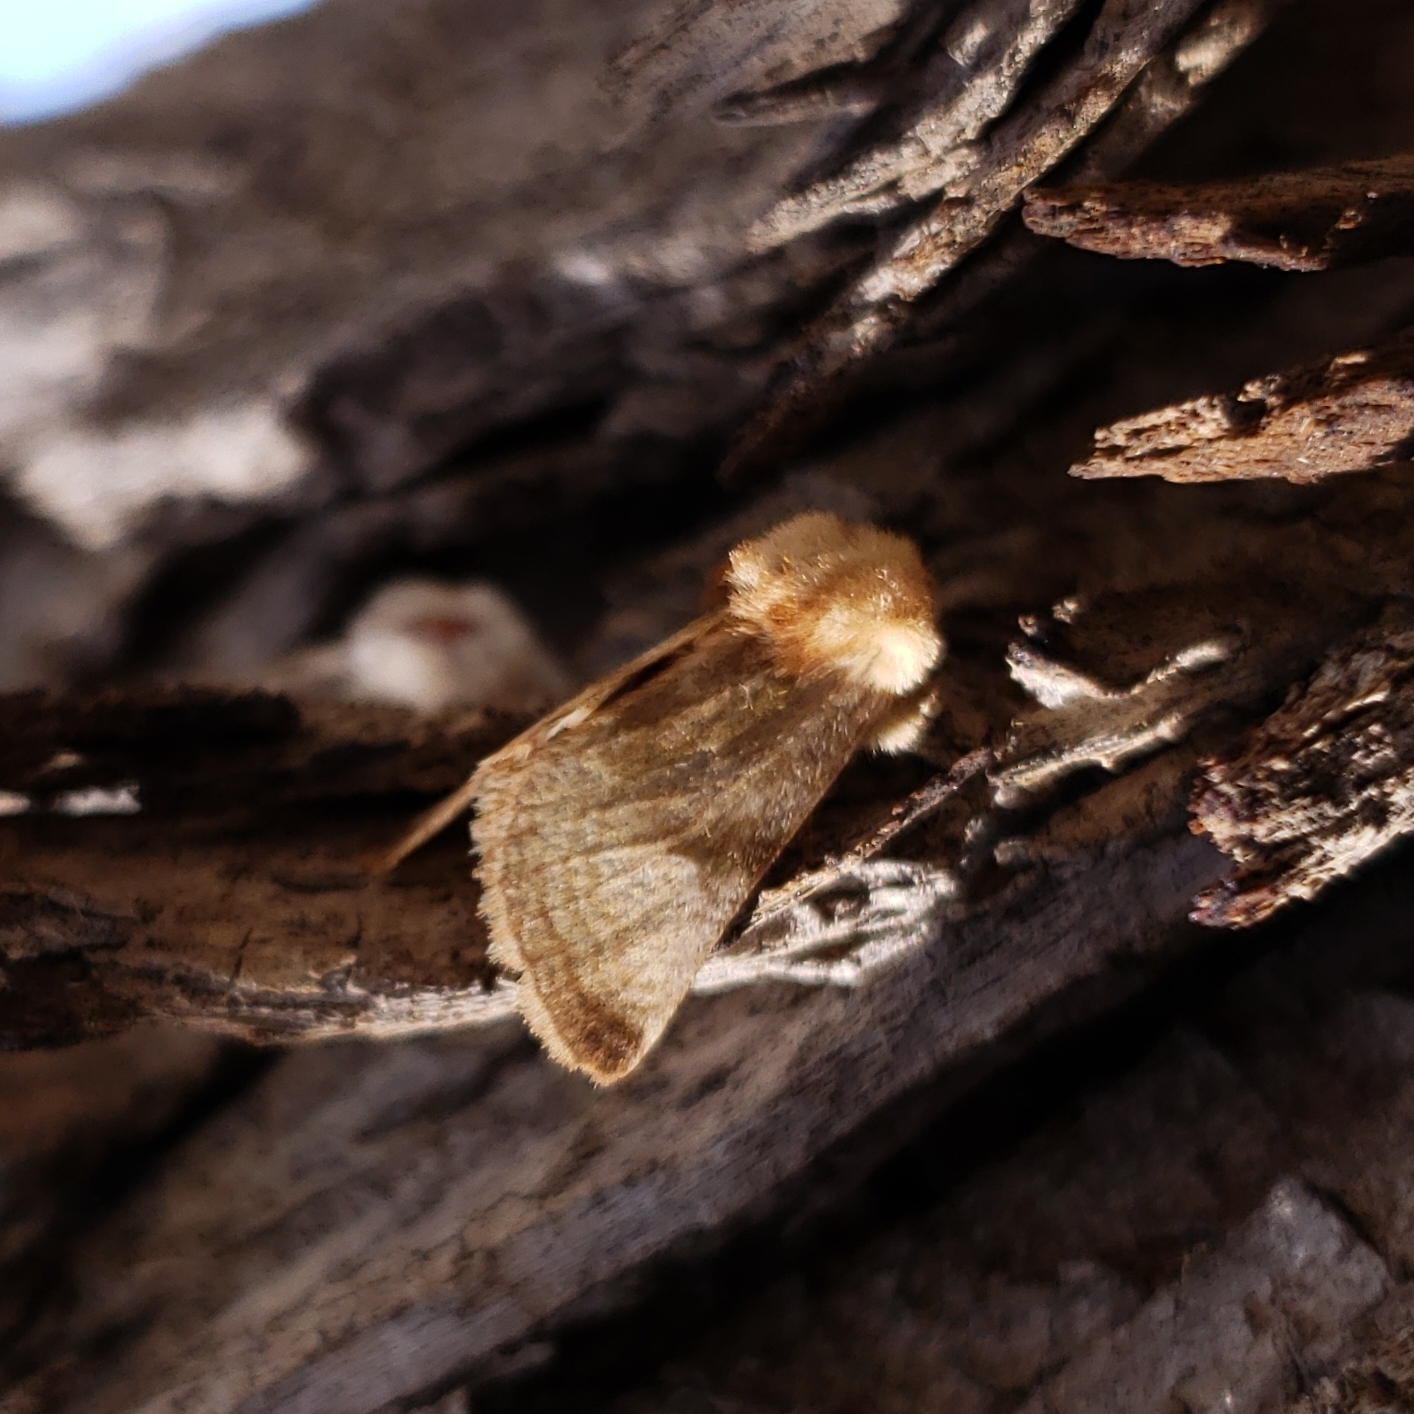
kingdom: Animalia
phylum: Arthropoda
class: Insecta
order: Lepidoptera
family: Noctuidae
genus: Nocloa
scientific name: Nocloa rivulosa
